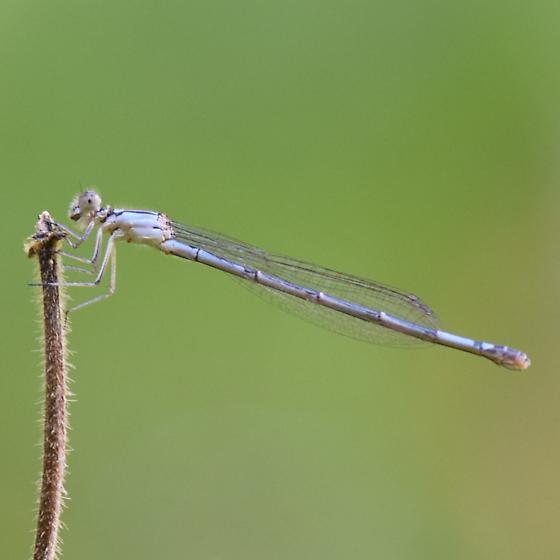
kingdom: Animalia
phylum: Arthropoda
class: Insecta
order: Odonata
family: Coenagrionidae
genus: Enallagma
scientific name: Enallagma aspersum
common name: Azure bluet
